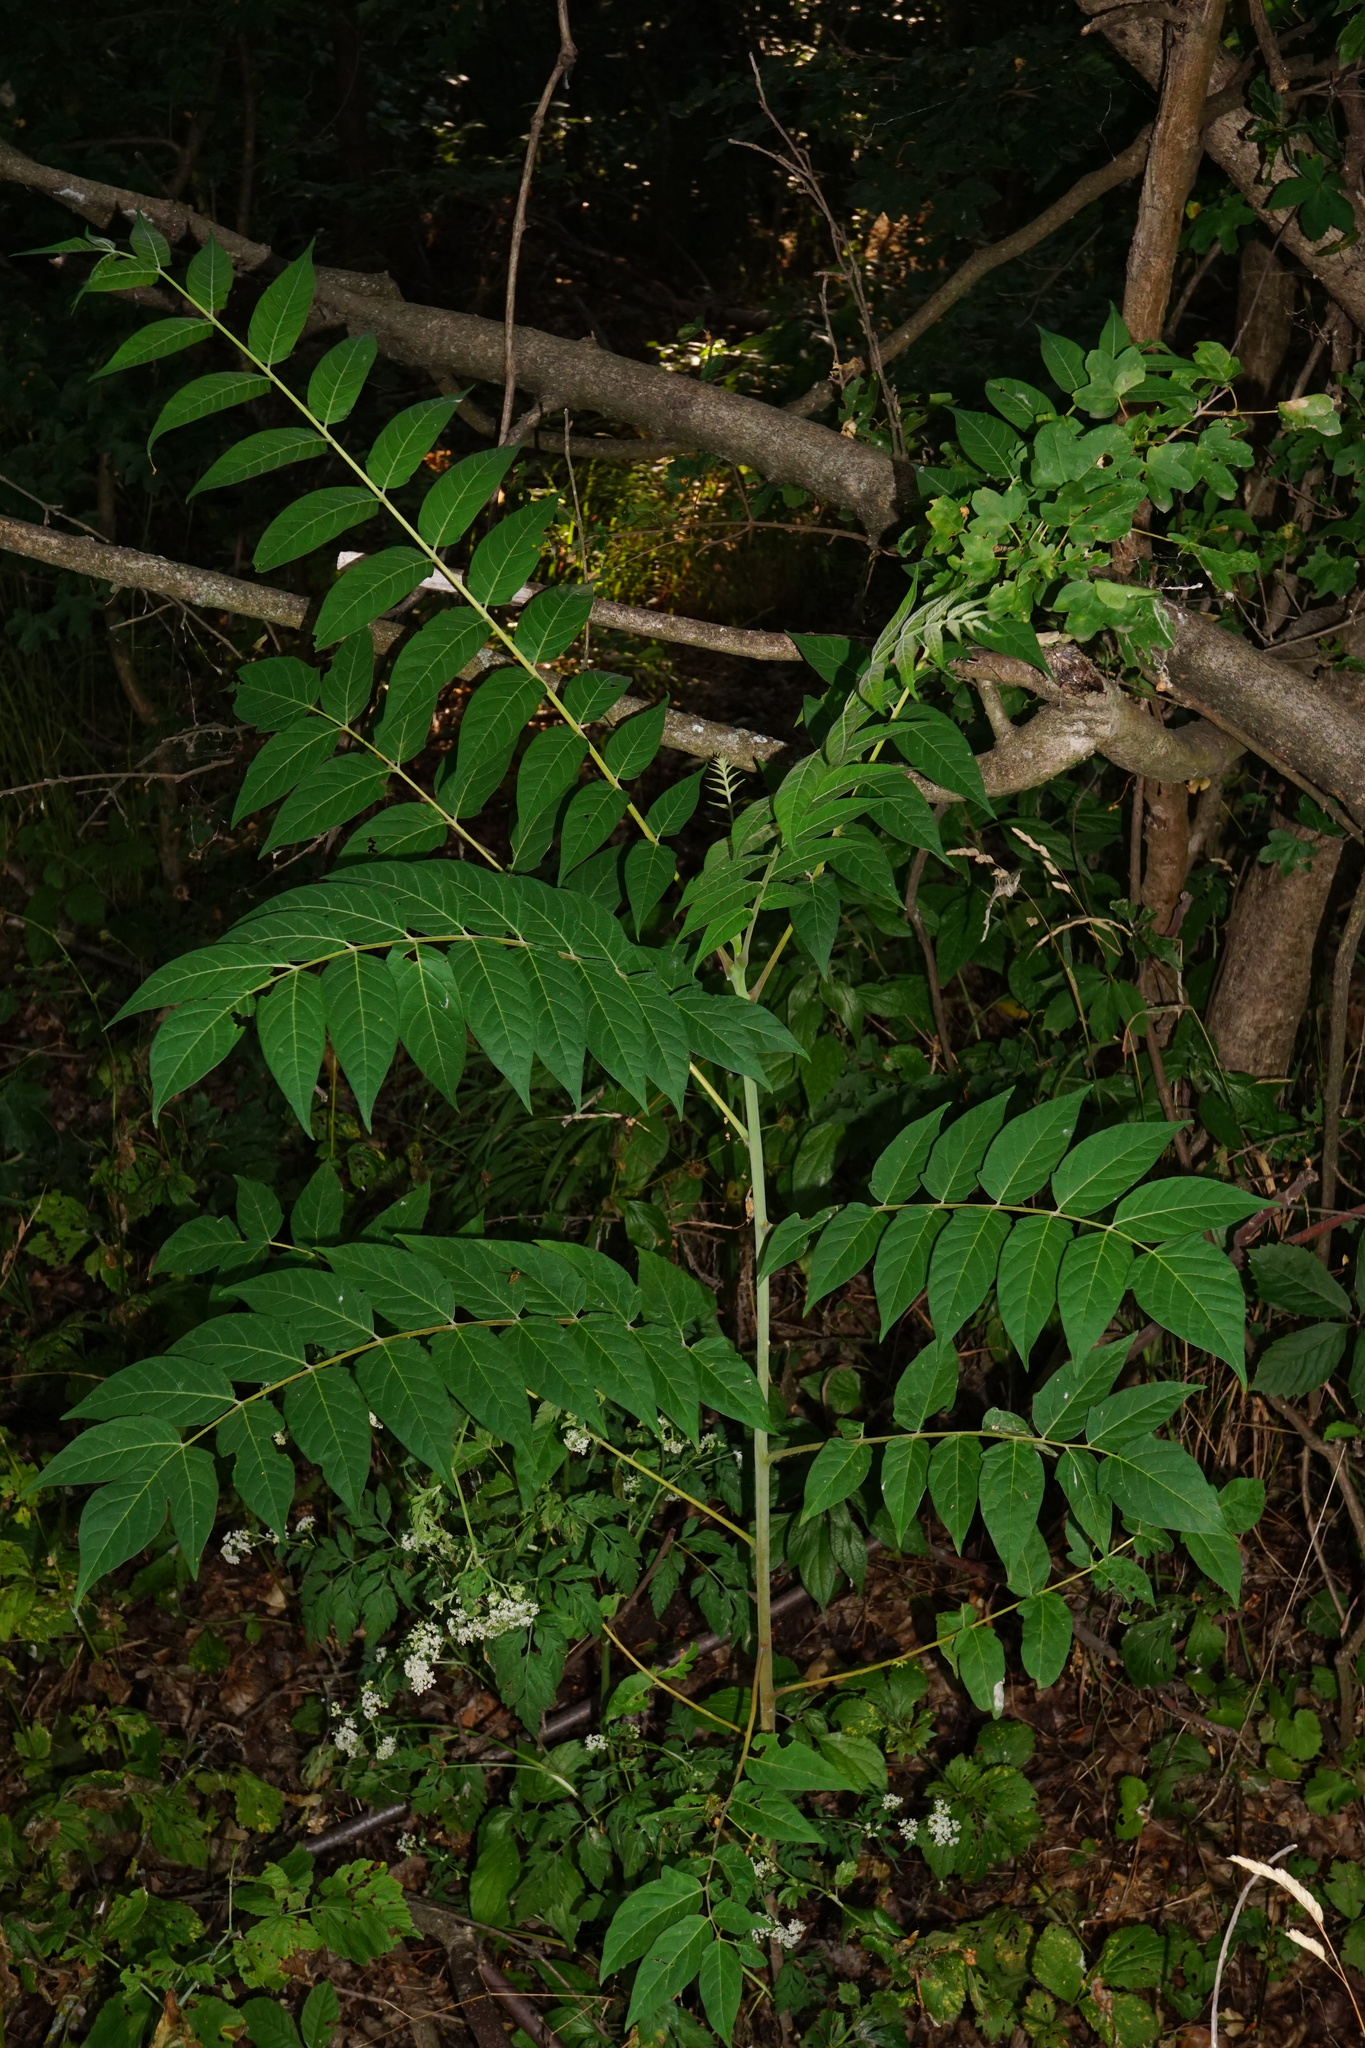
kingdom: Plantae
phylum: Tracheophyta
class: Magnoliopsida
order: Sapindales
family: Simaroubaceae
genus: Ailanthus
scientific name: Ailanthus altissima
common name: Tree-of-heaven
